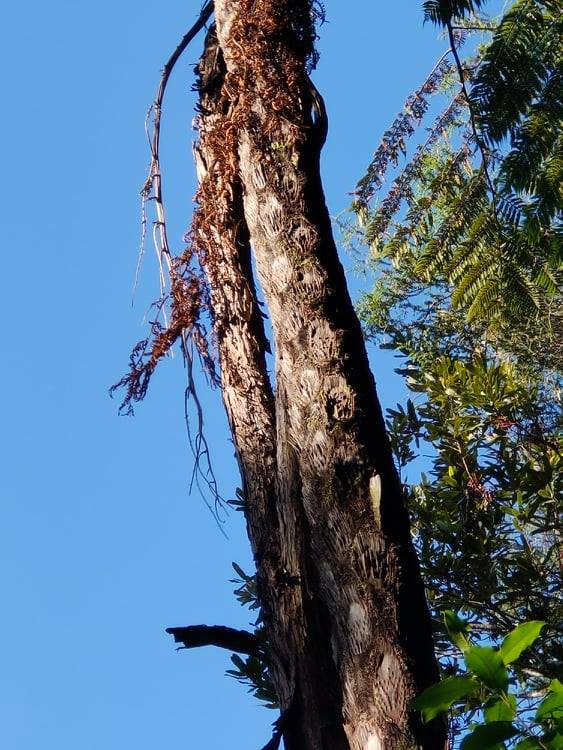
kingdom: Plantae
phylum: Tracheophyta
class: Polypodiopsida
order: Cyatheales
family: Cyatheaceae
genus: Sphaeropteris
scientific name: Sphaeropteris medullaris
